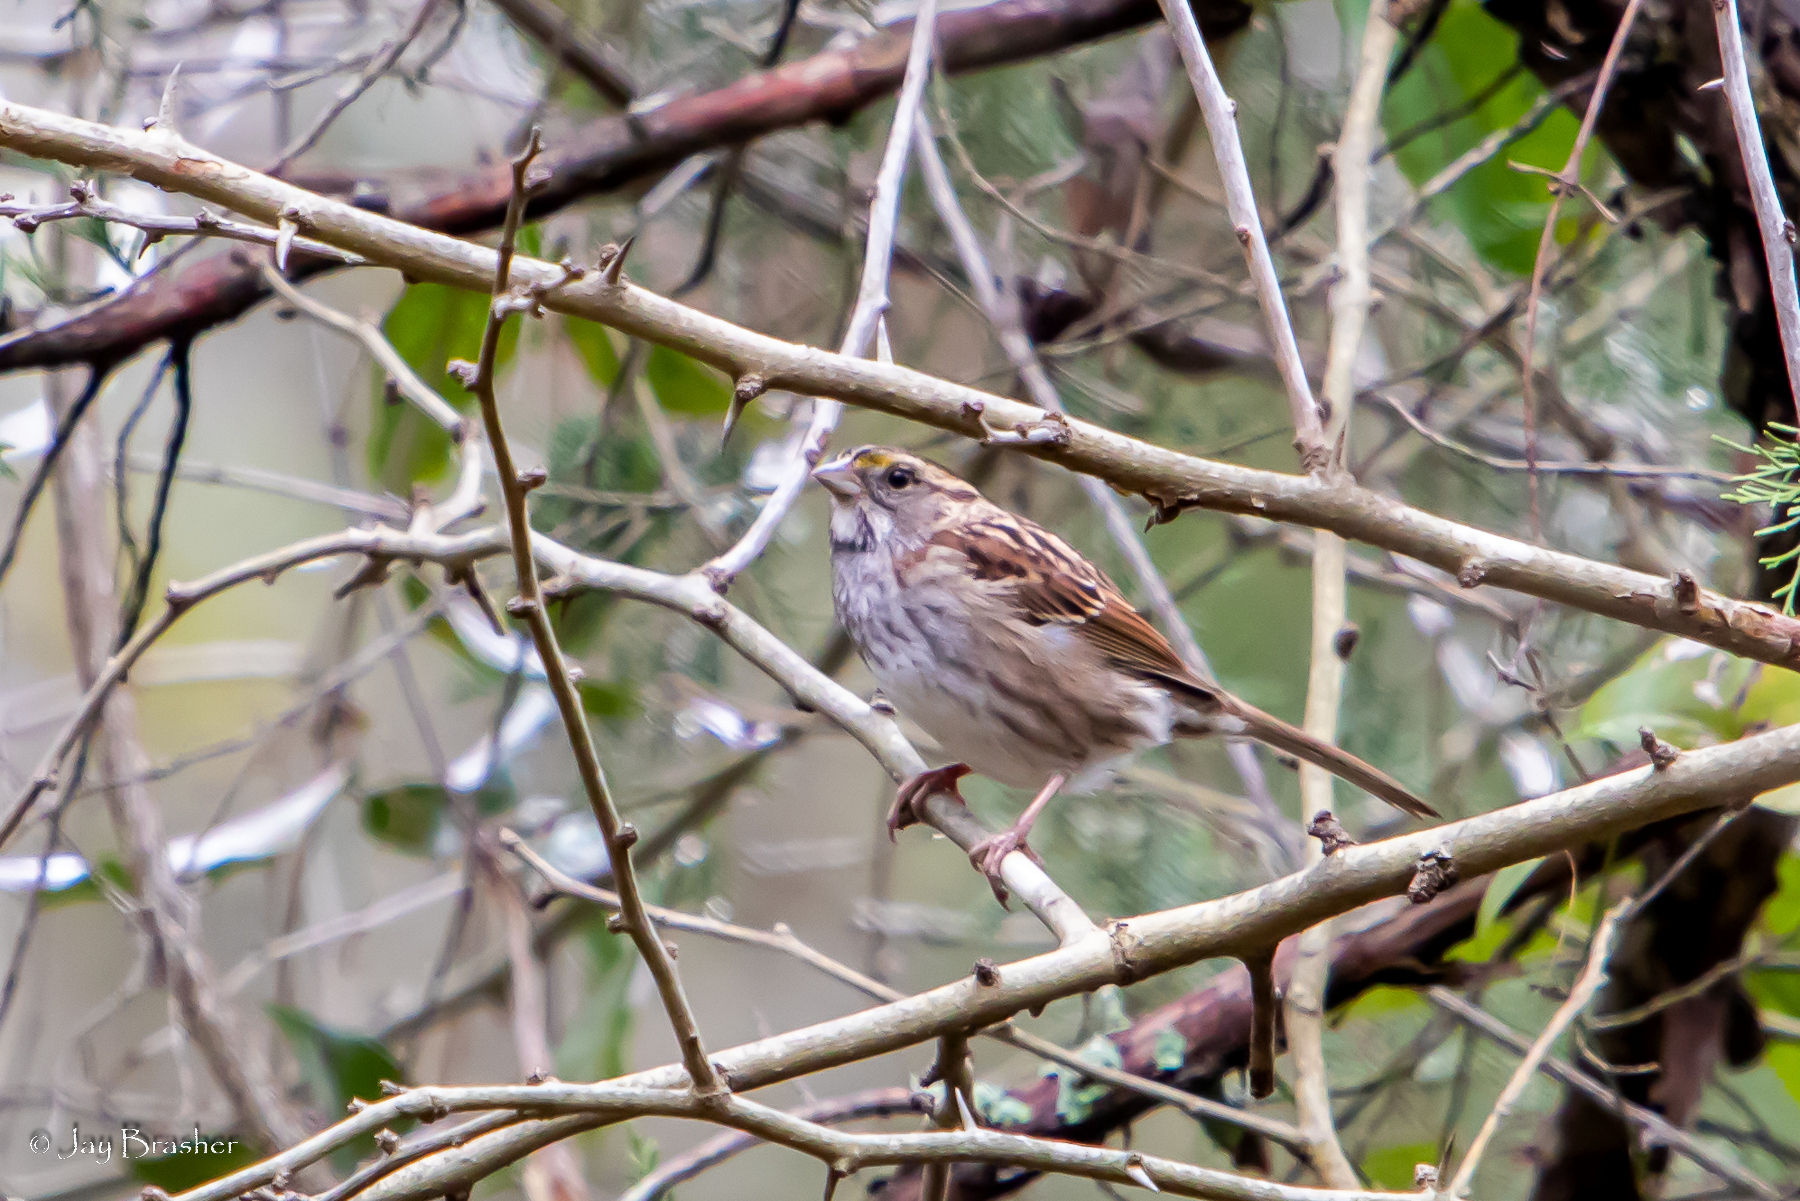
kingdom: Animalia
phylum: Chordata
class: Aves
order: Passeriformes
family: Passerellidae
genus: Zonotrichia
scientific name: Zonotrichia albicollis
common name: White-throated sparrow
